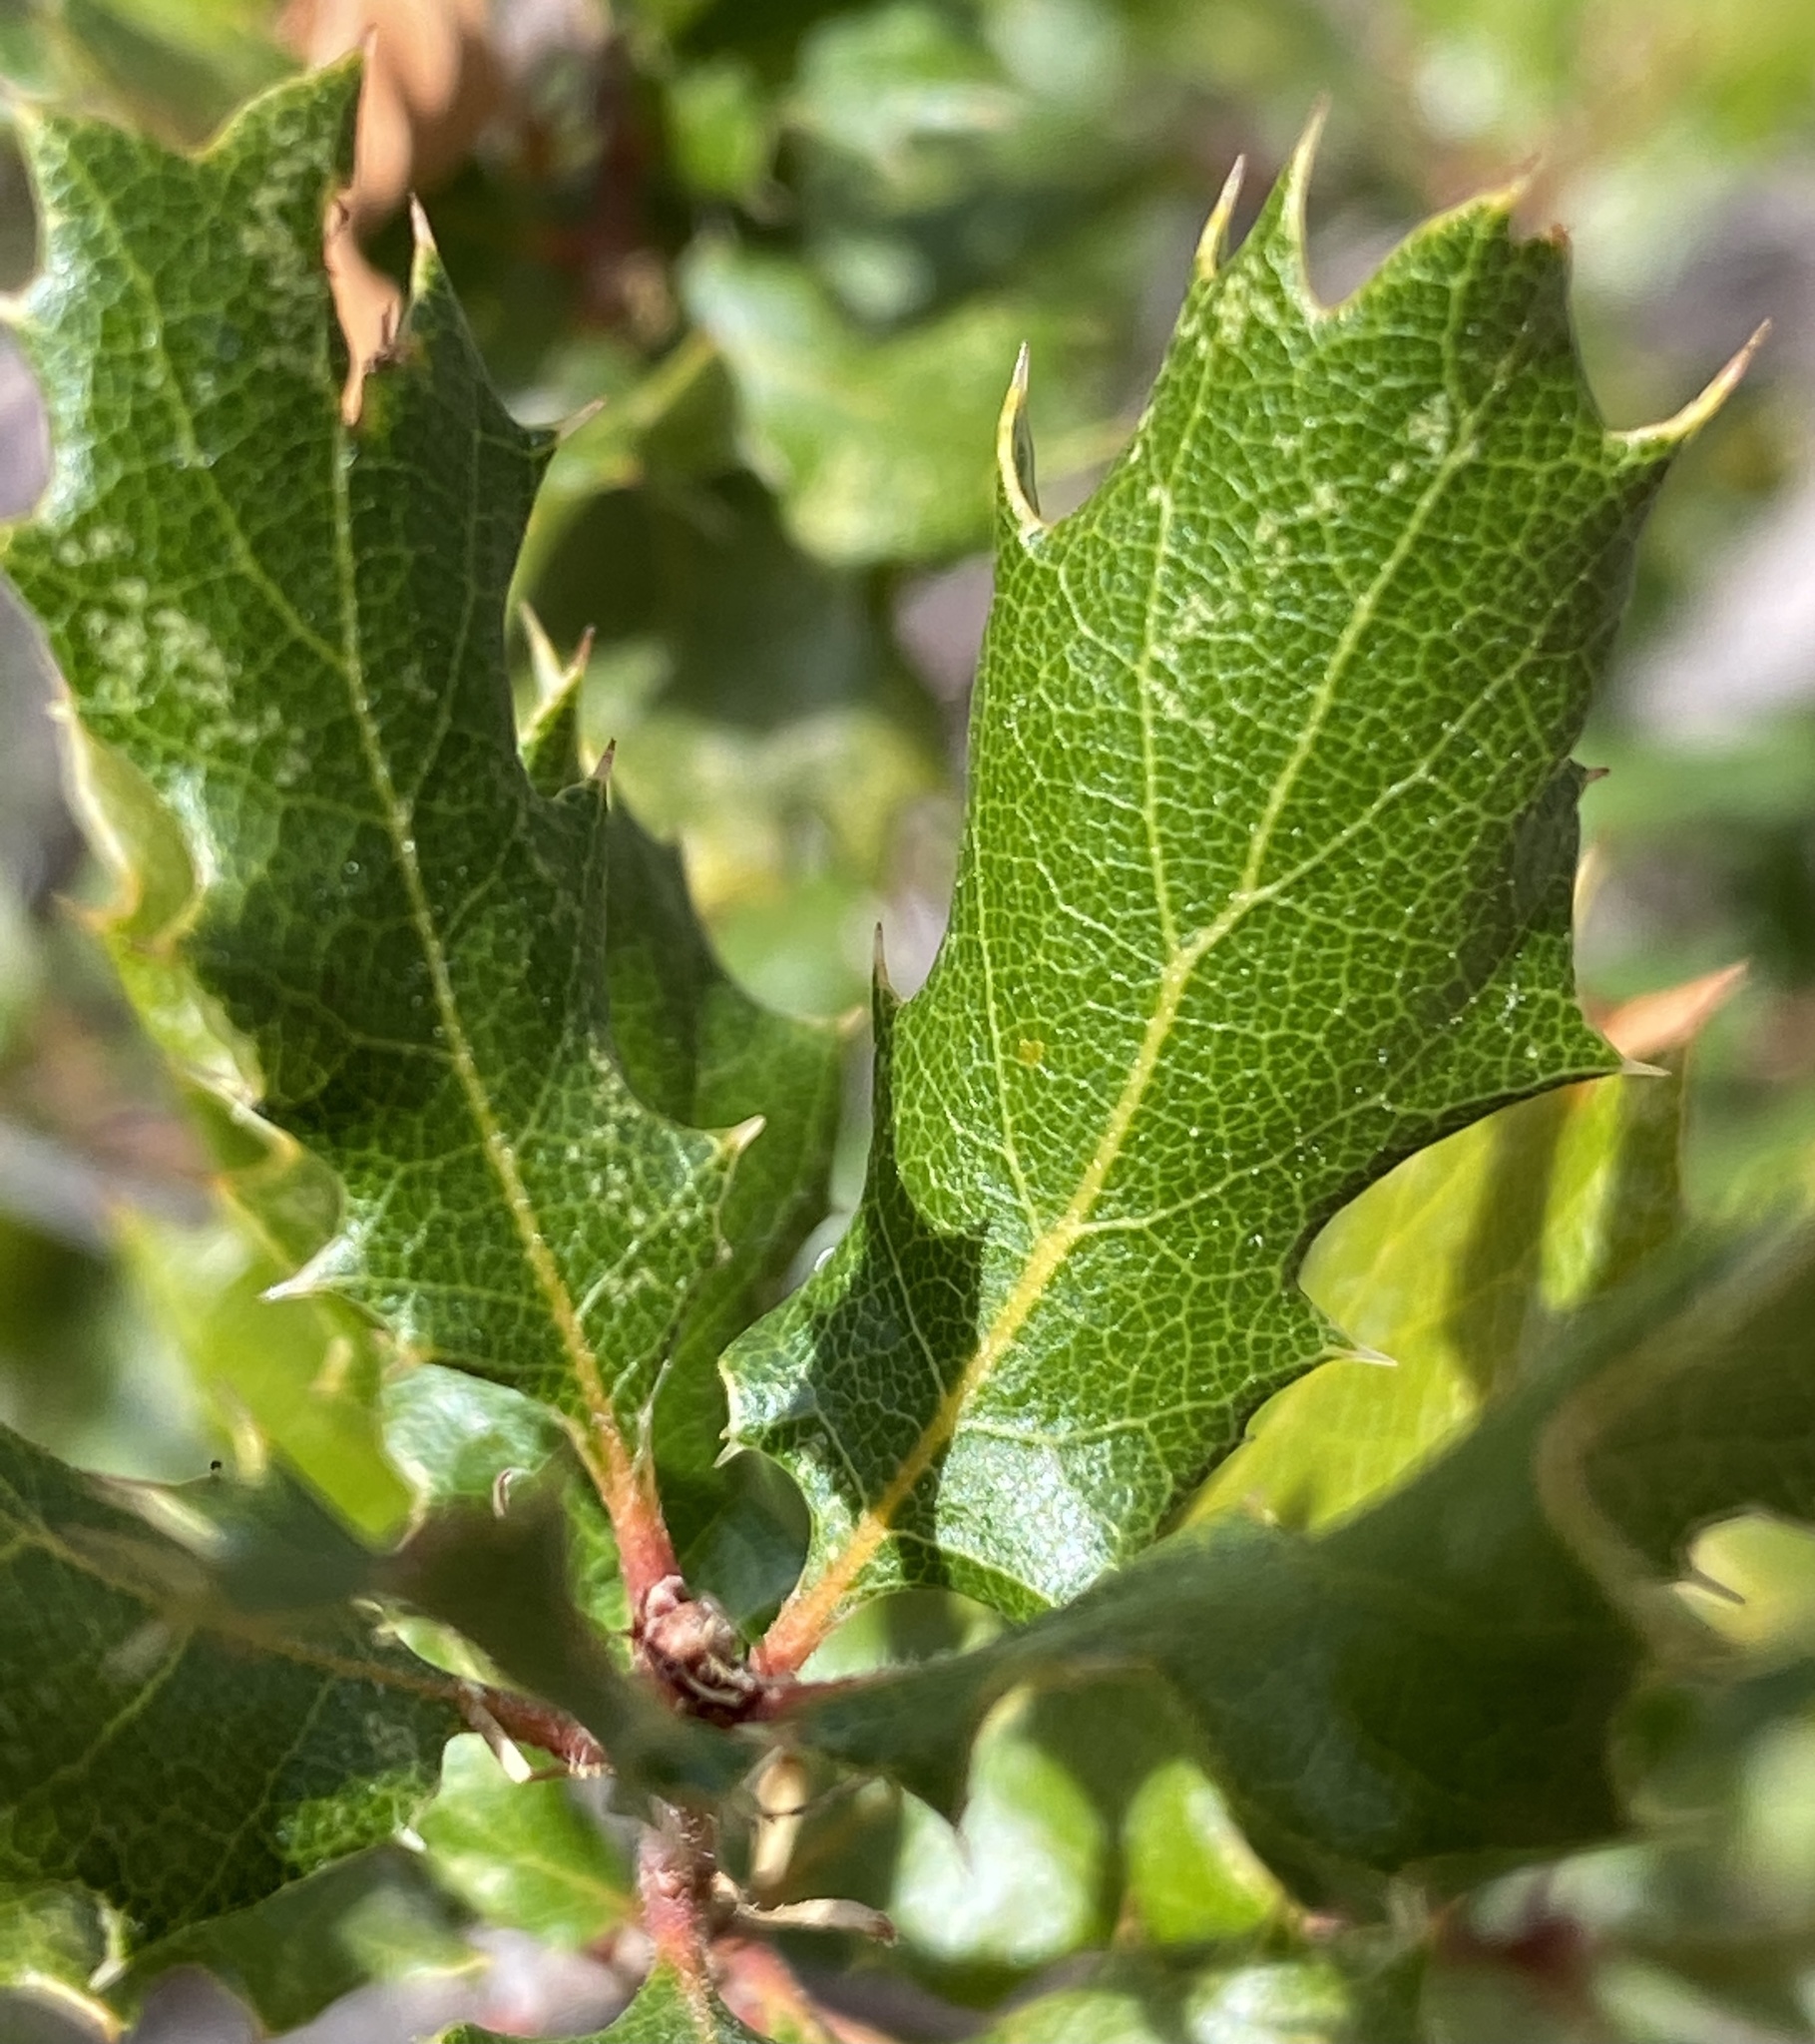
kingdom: Plantae
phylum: Tracheophyta
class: Magnoliopsida
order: Fagales
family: Fagaceae
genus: Quercus
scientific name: Quercus berberidifolia
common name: California scrub oak
